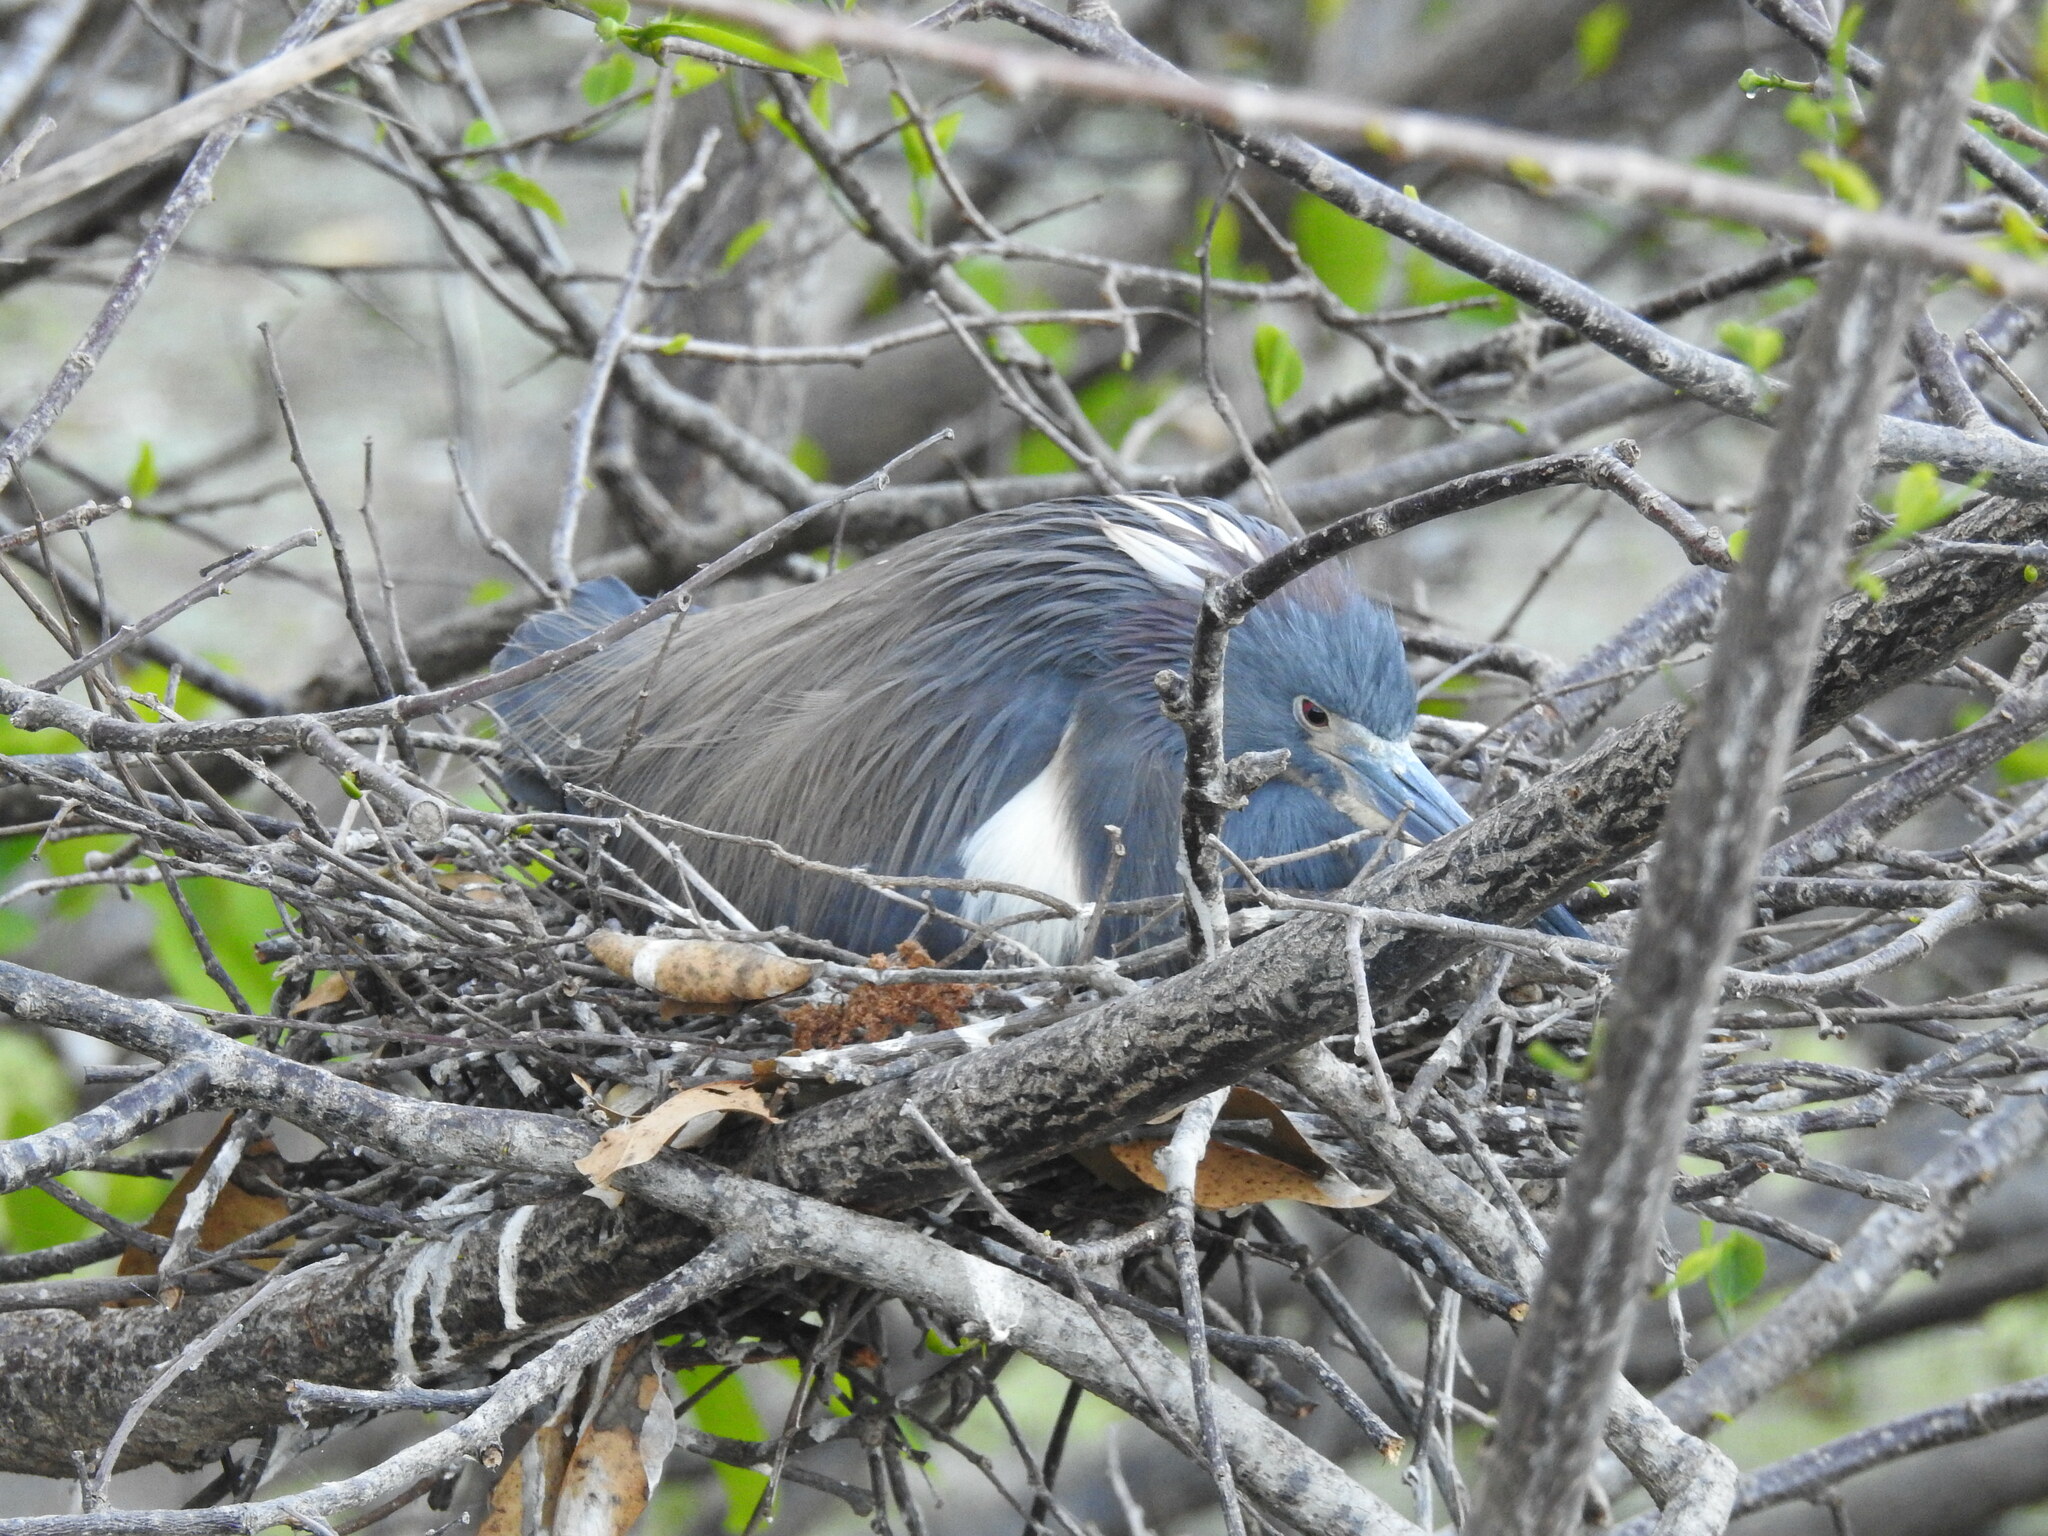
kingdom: Animalia
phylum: Chordata
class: Aves
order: Pelecaniformes
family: Ardeidae
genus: Egretta
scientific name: Egretta tricolor
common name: Tricolored heron
